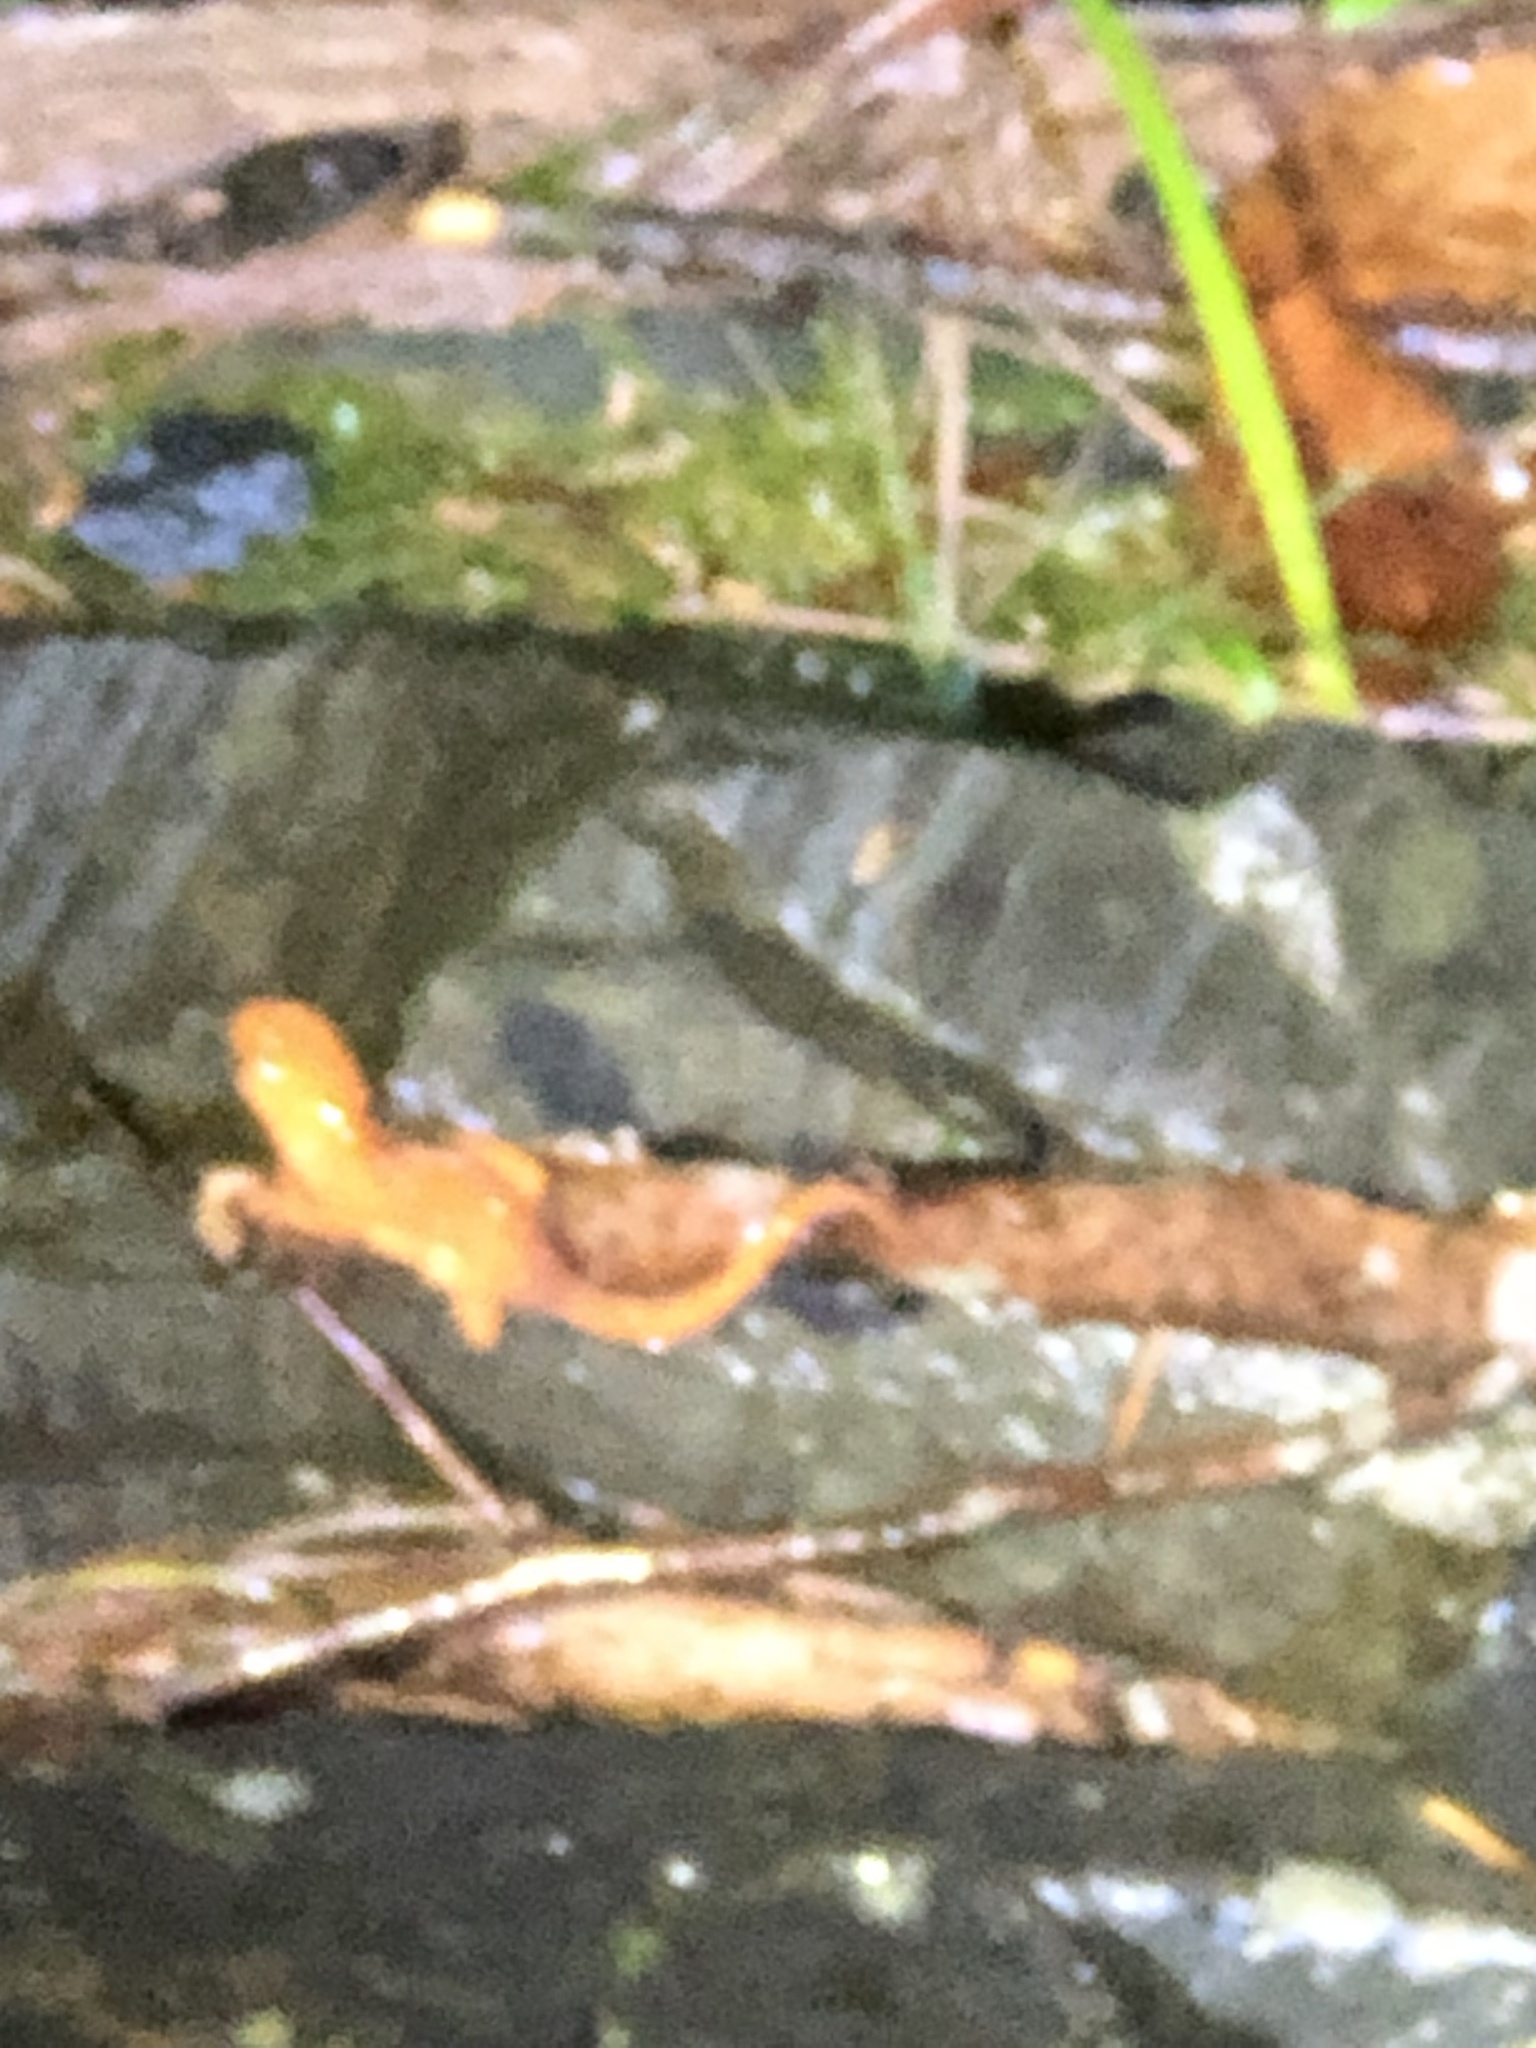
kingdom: Animalia
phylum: Chordata
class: Amphibia
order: Caudata
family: Salamandridae
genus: Notophthalmus
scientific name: Notophthalmus viridescens
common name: Eastern newt
